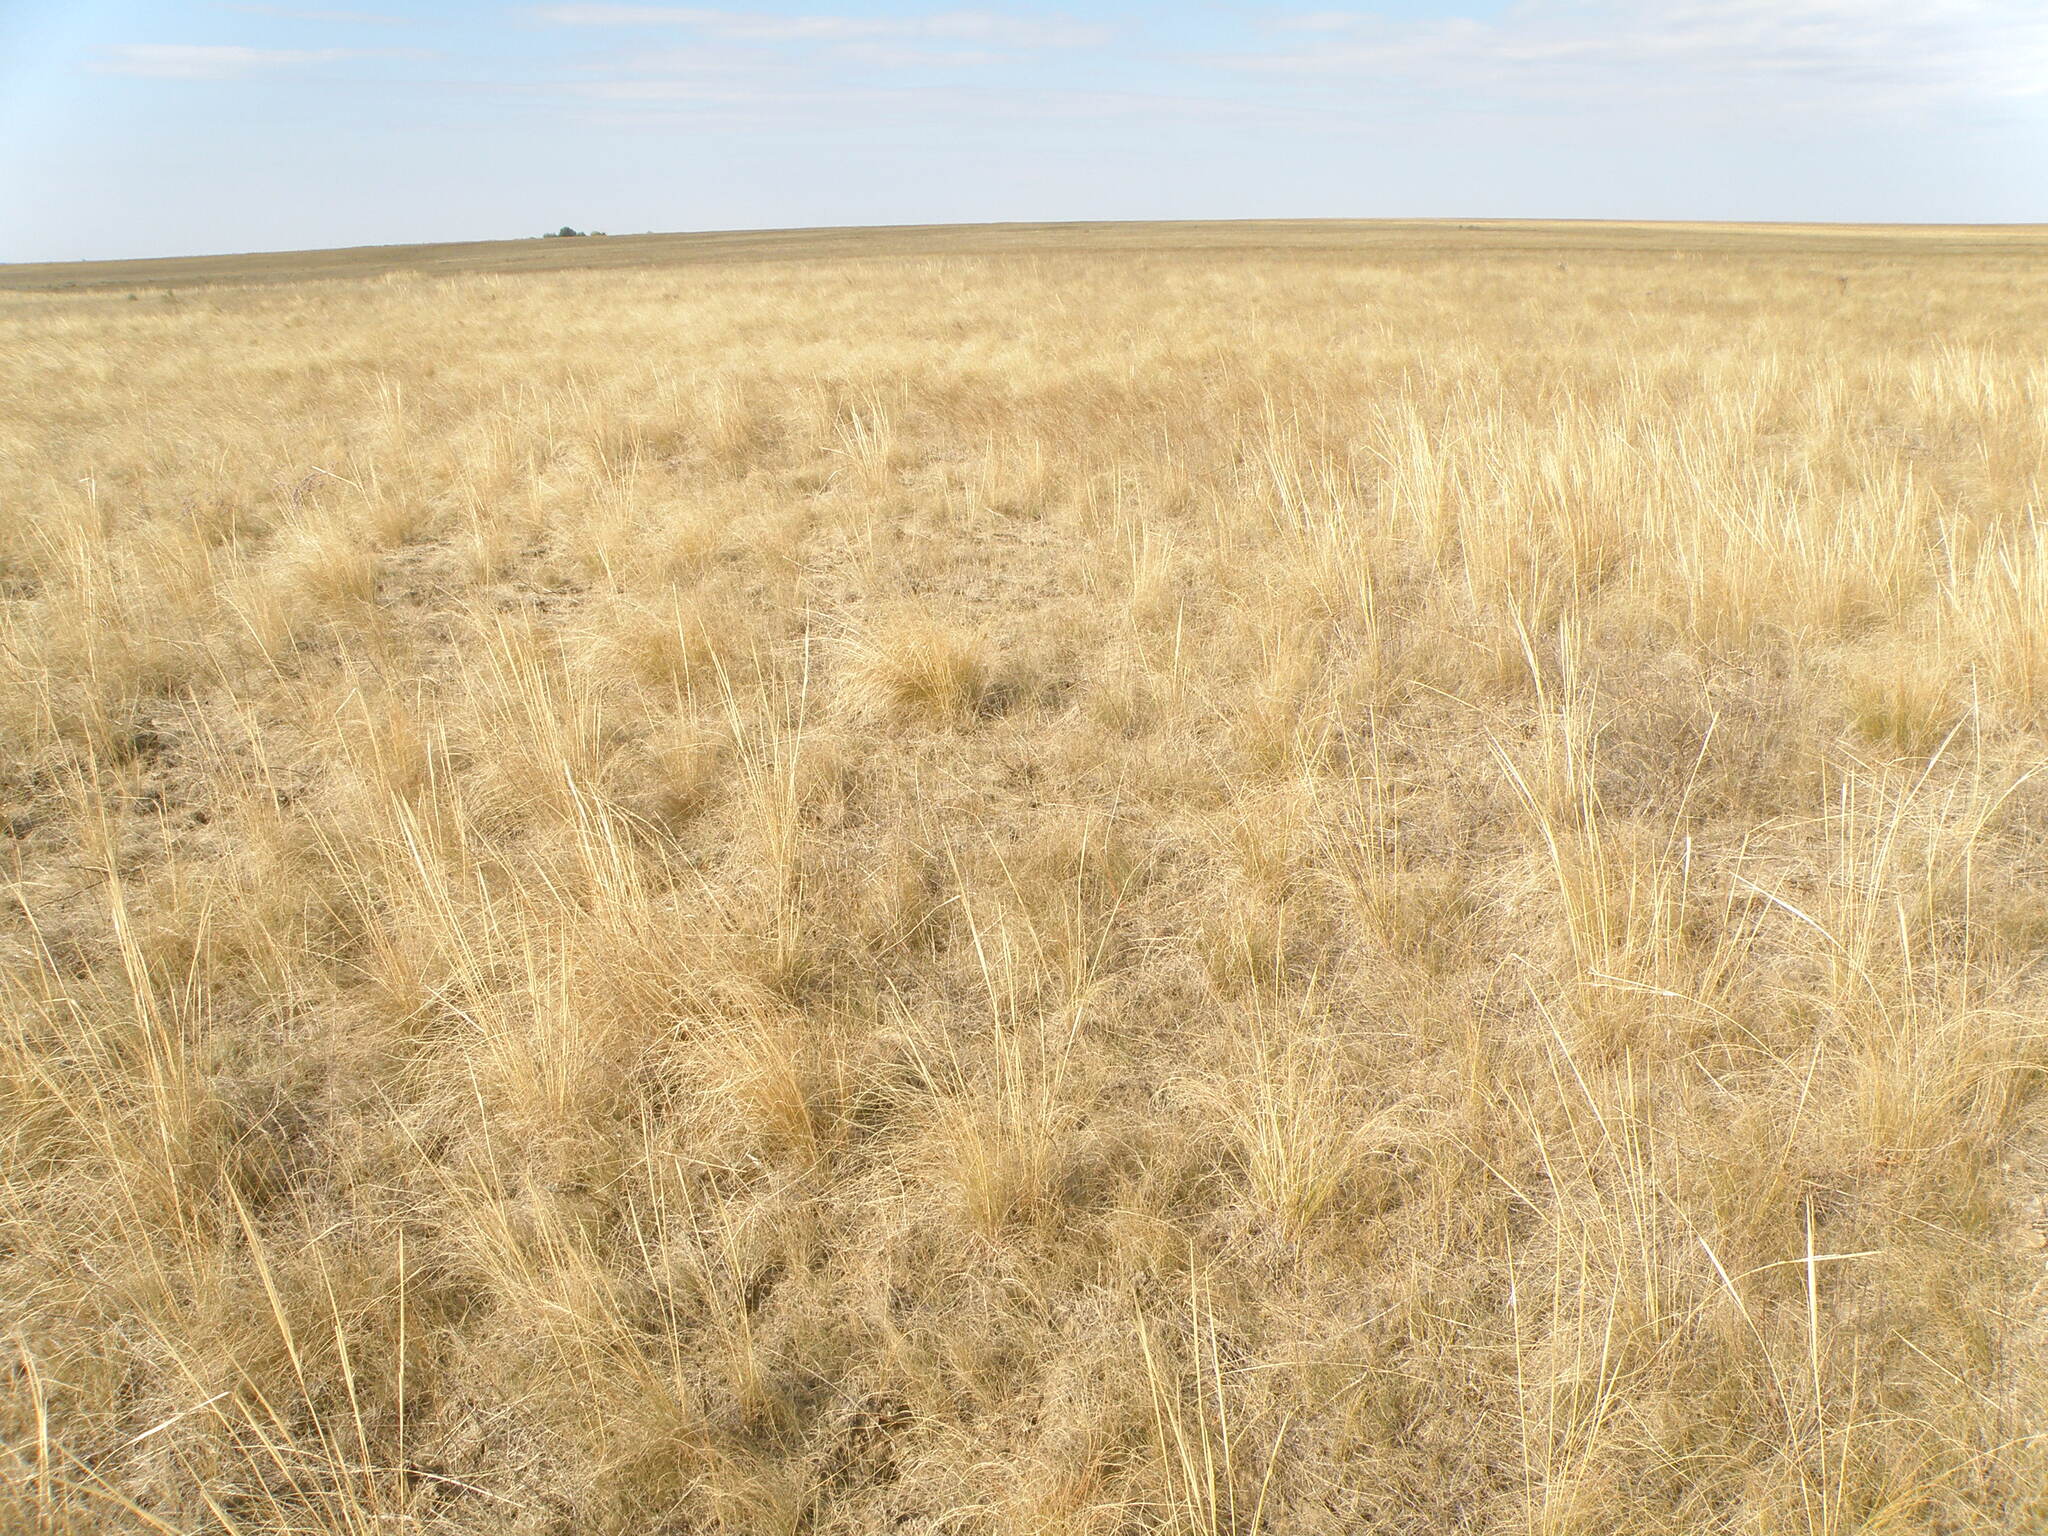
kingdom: Plantae
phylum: Tracheophyta
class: Liliopsida
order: Poales
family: Poaceae
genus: Stipa
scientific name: Stipa capillata
